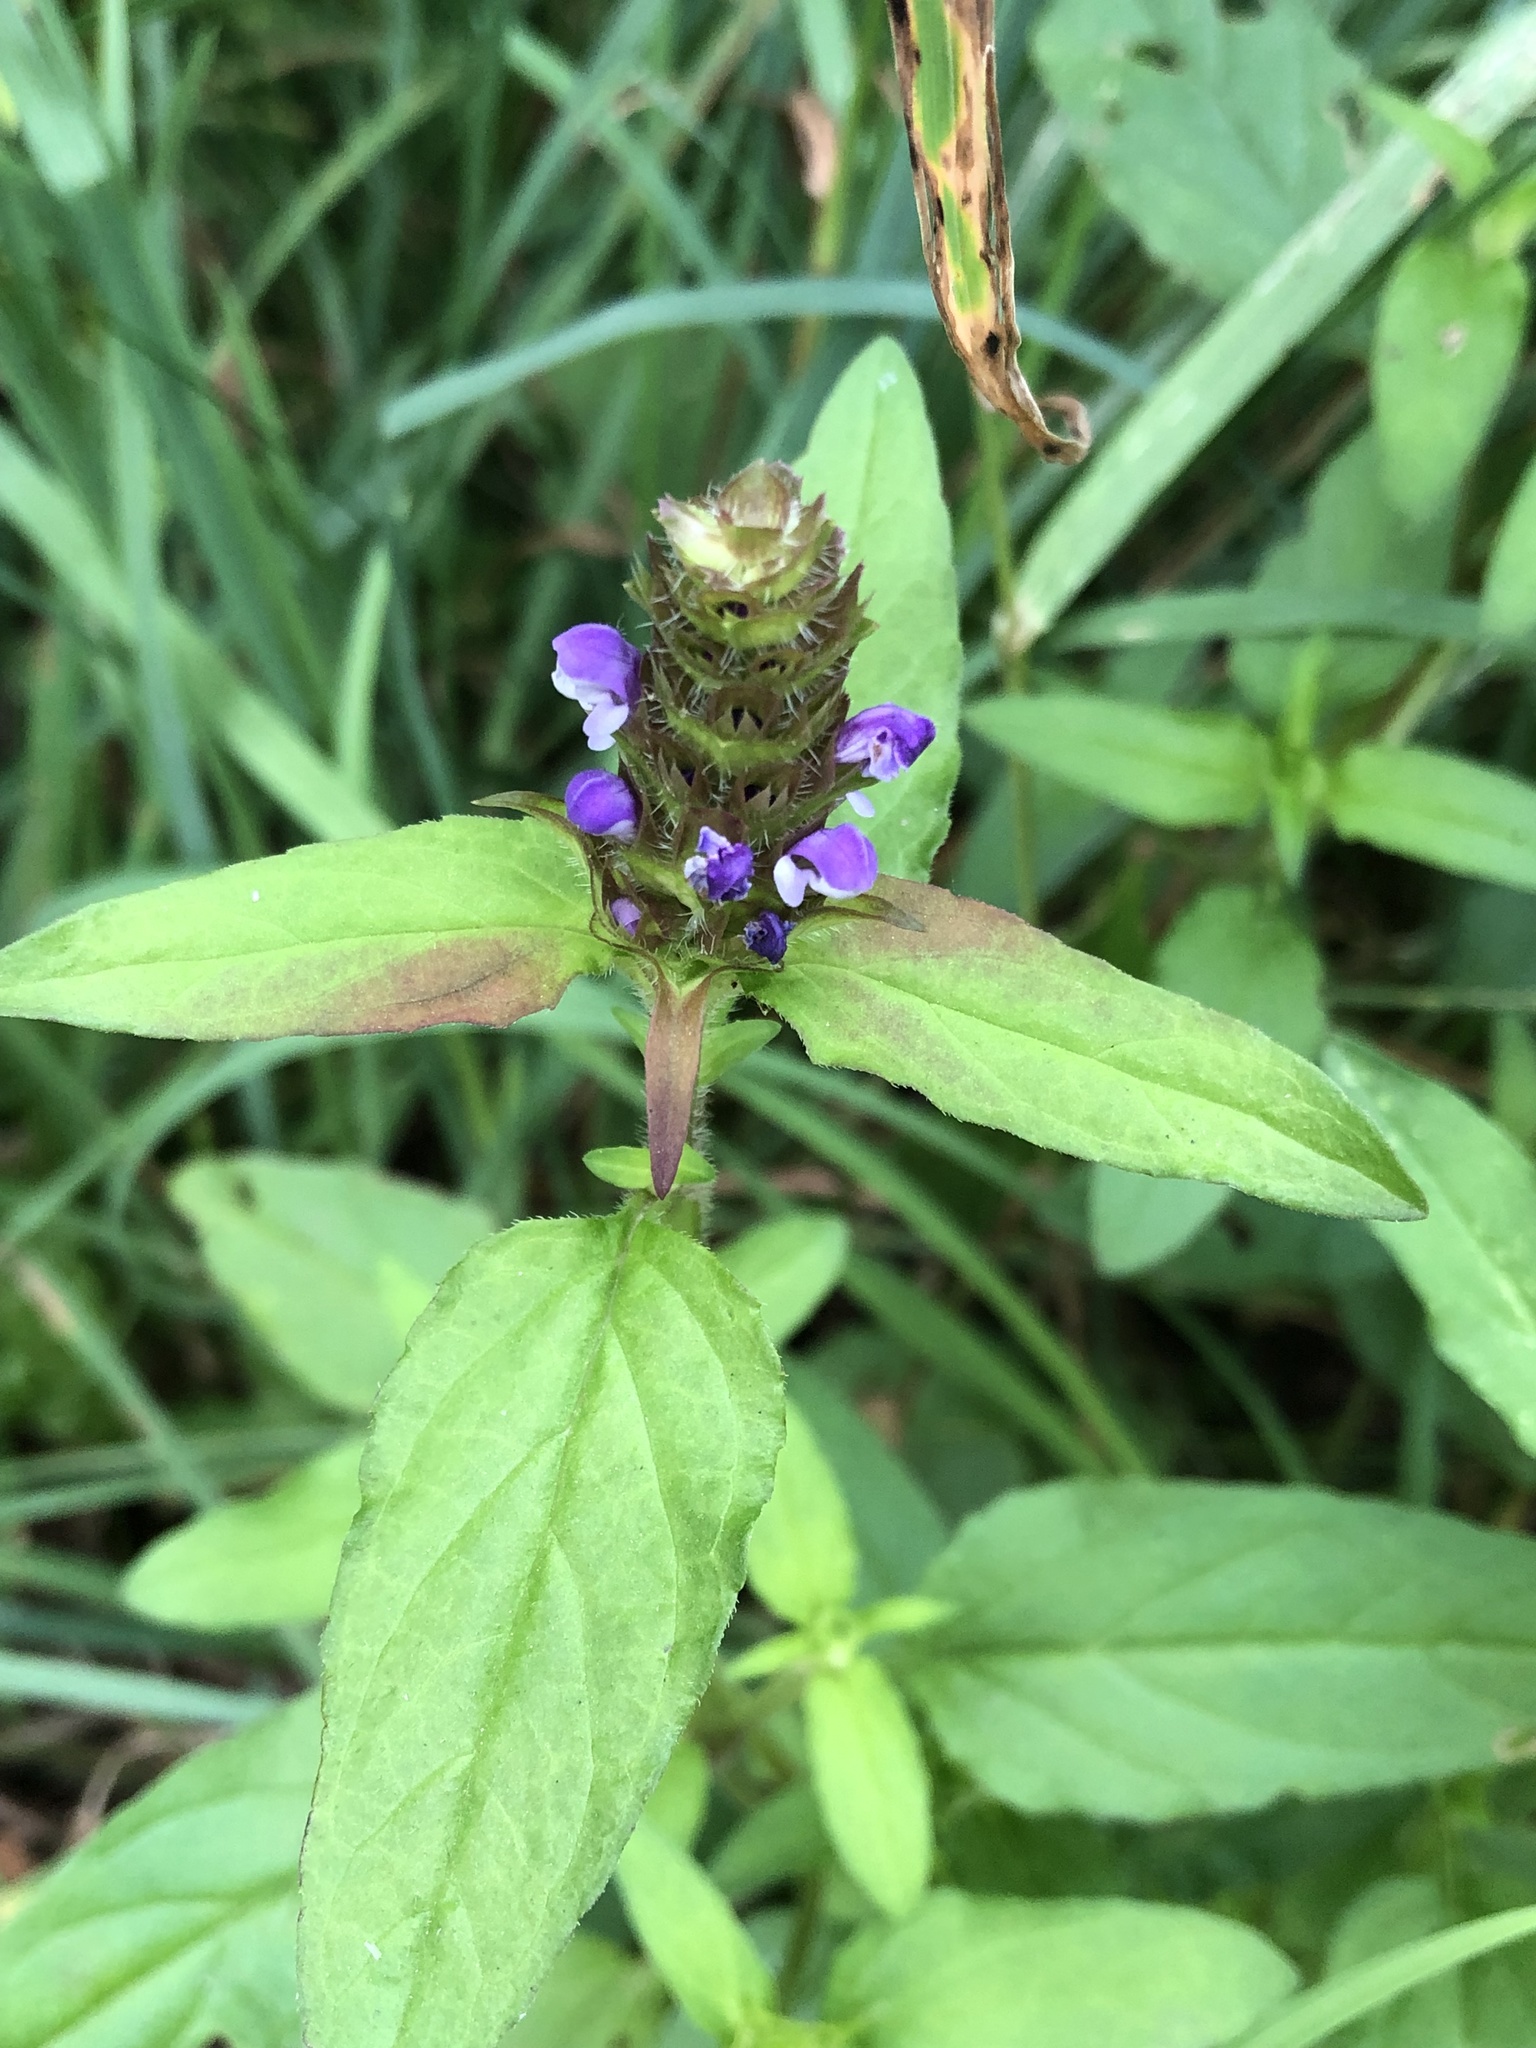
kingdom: Plantae
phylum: Tracheophyta
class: Magnoliopsida
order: Lamiales
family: Lamiaceae
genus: Prunella
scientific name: Prunella vulgaris
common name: Heal-all
